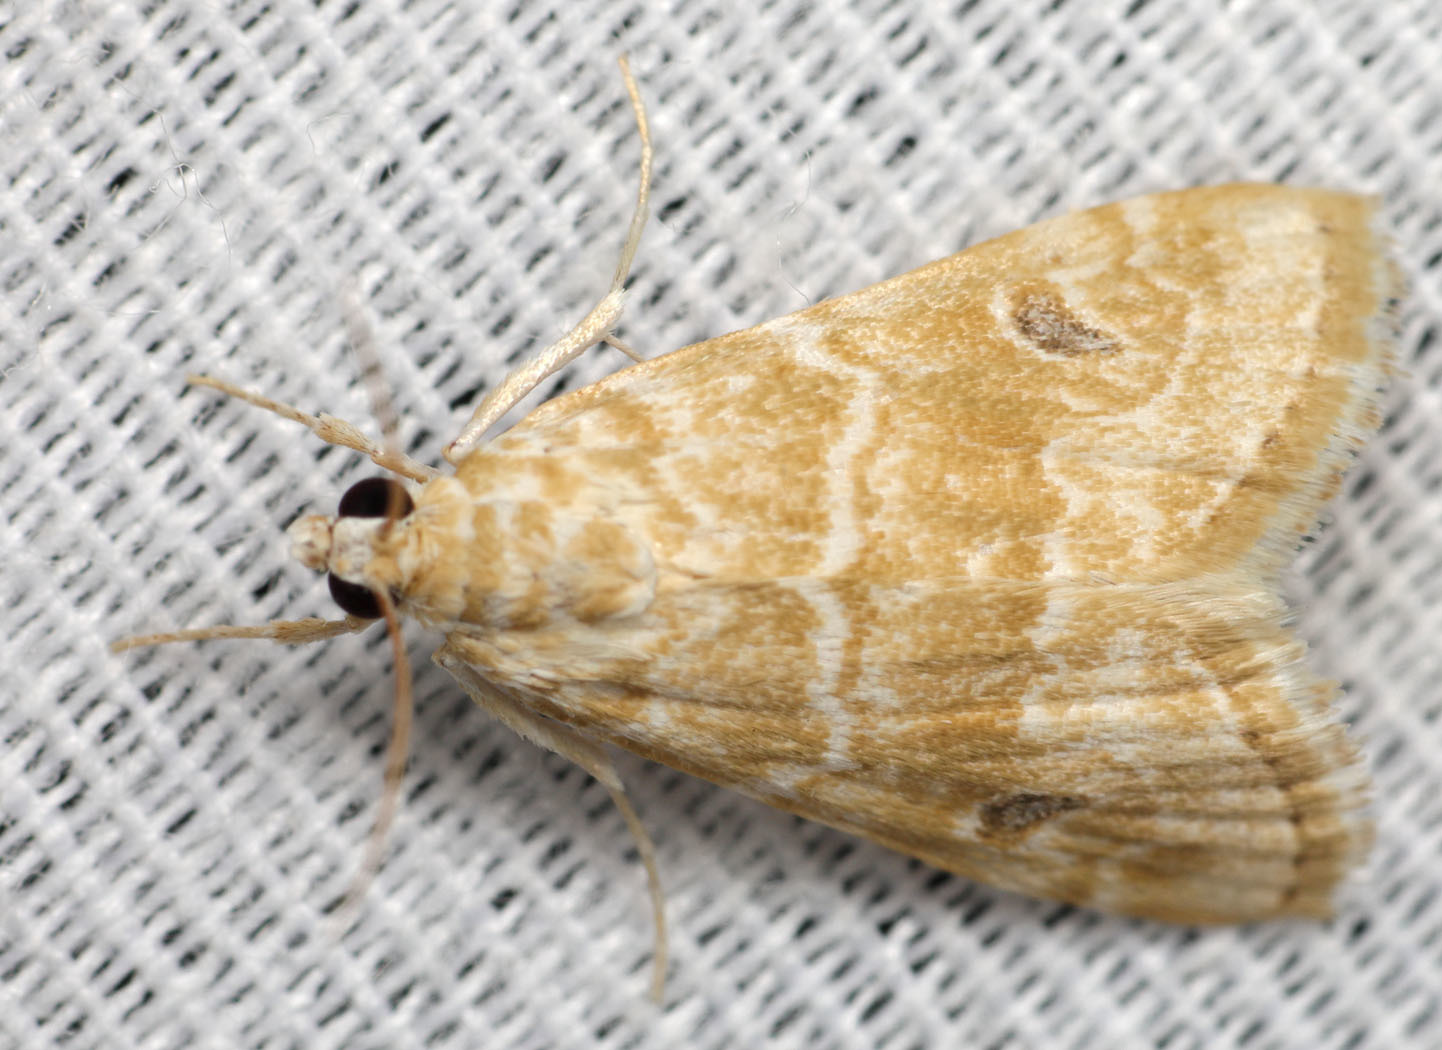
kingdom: Animalia
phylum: Arthropoda
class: Insecta
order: Lepidoptera
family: Crambidae
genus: Hellula
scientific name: Hellula rogatalis
